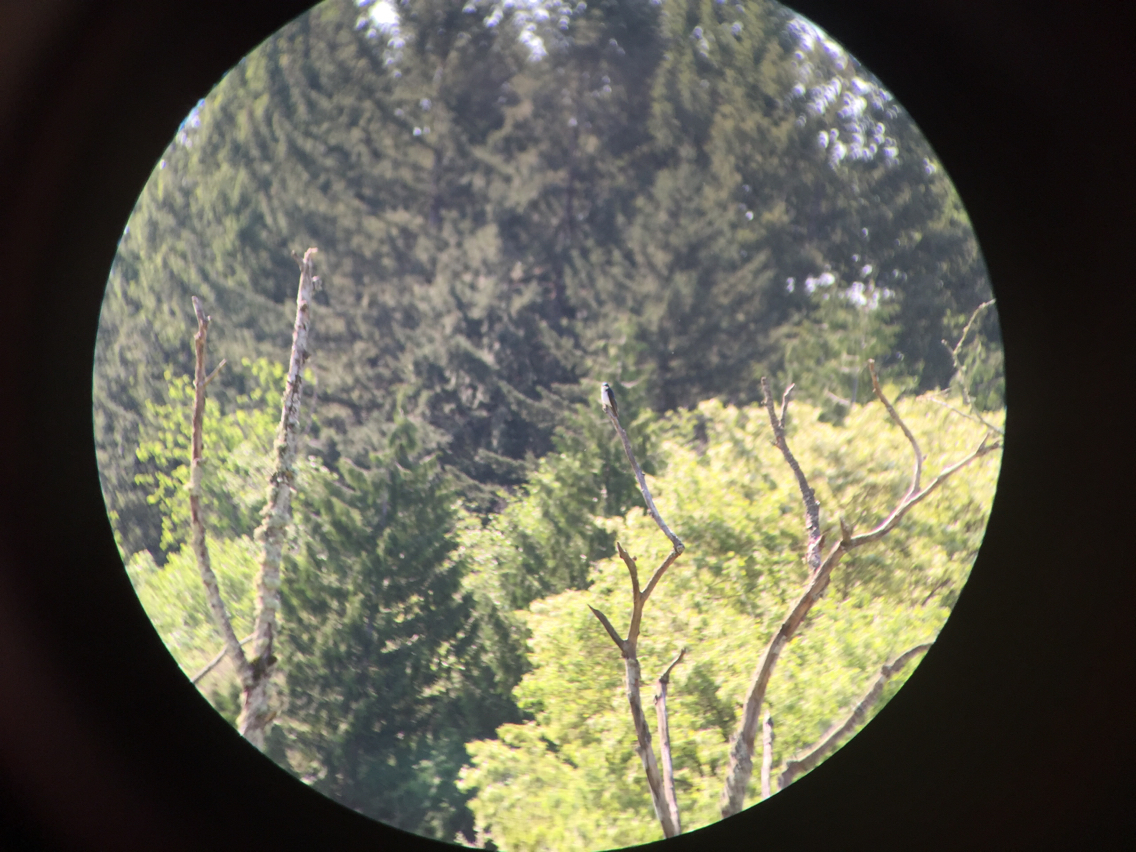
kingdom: Animalia
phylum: Chordata
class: Aves
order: Passeriformes
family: Hirundinidae
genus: Tachycineta
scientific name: Tachycineta bicolor
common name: Tree swallow
